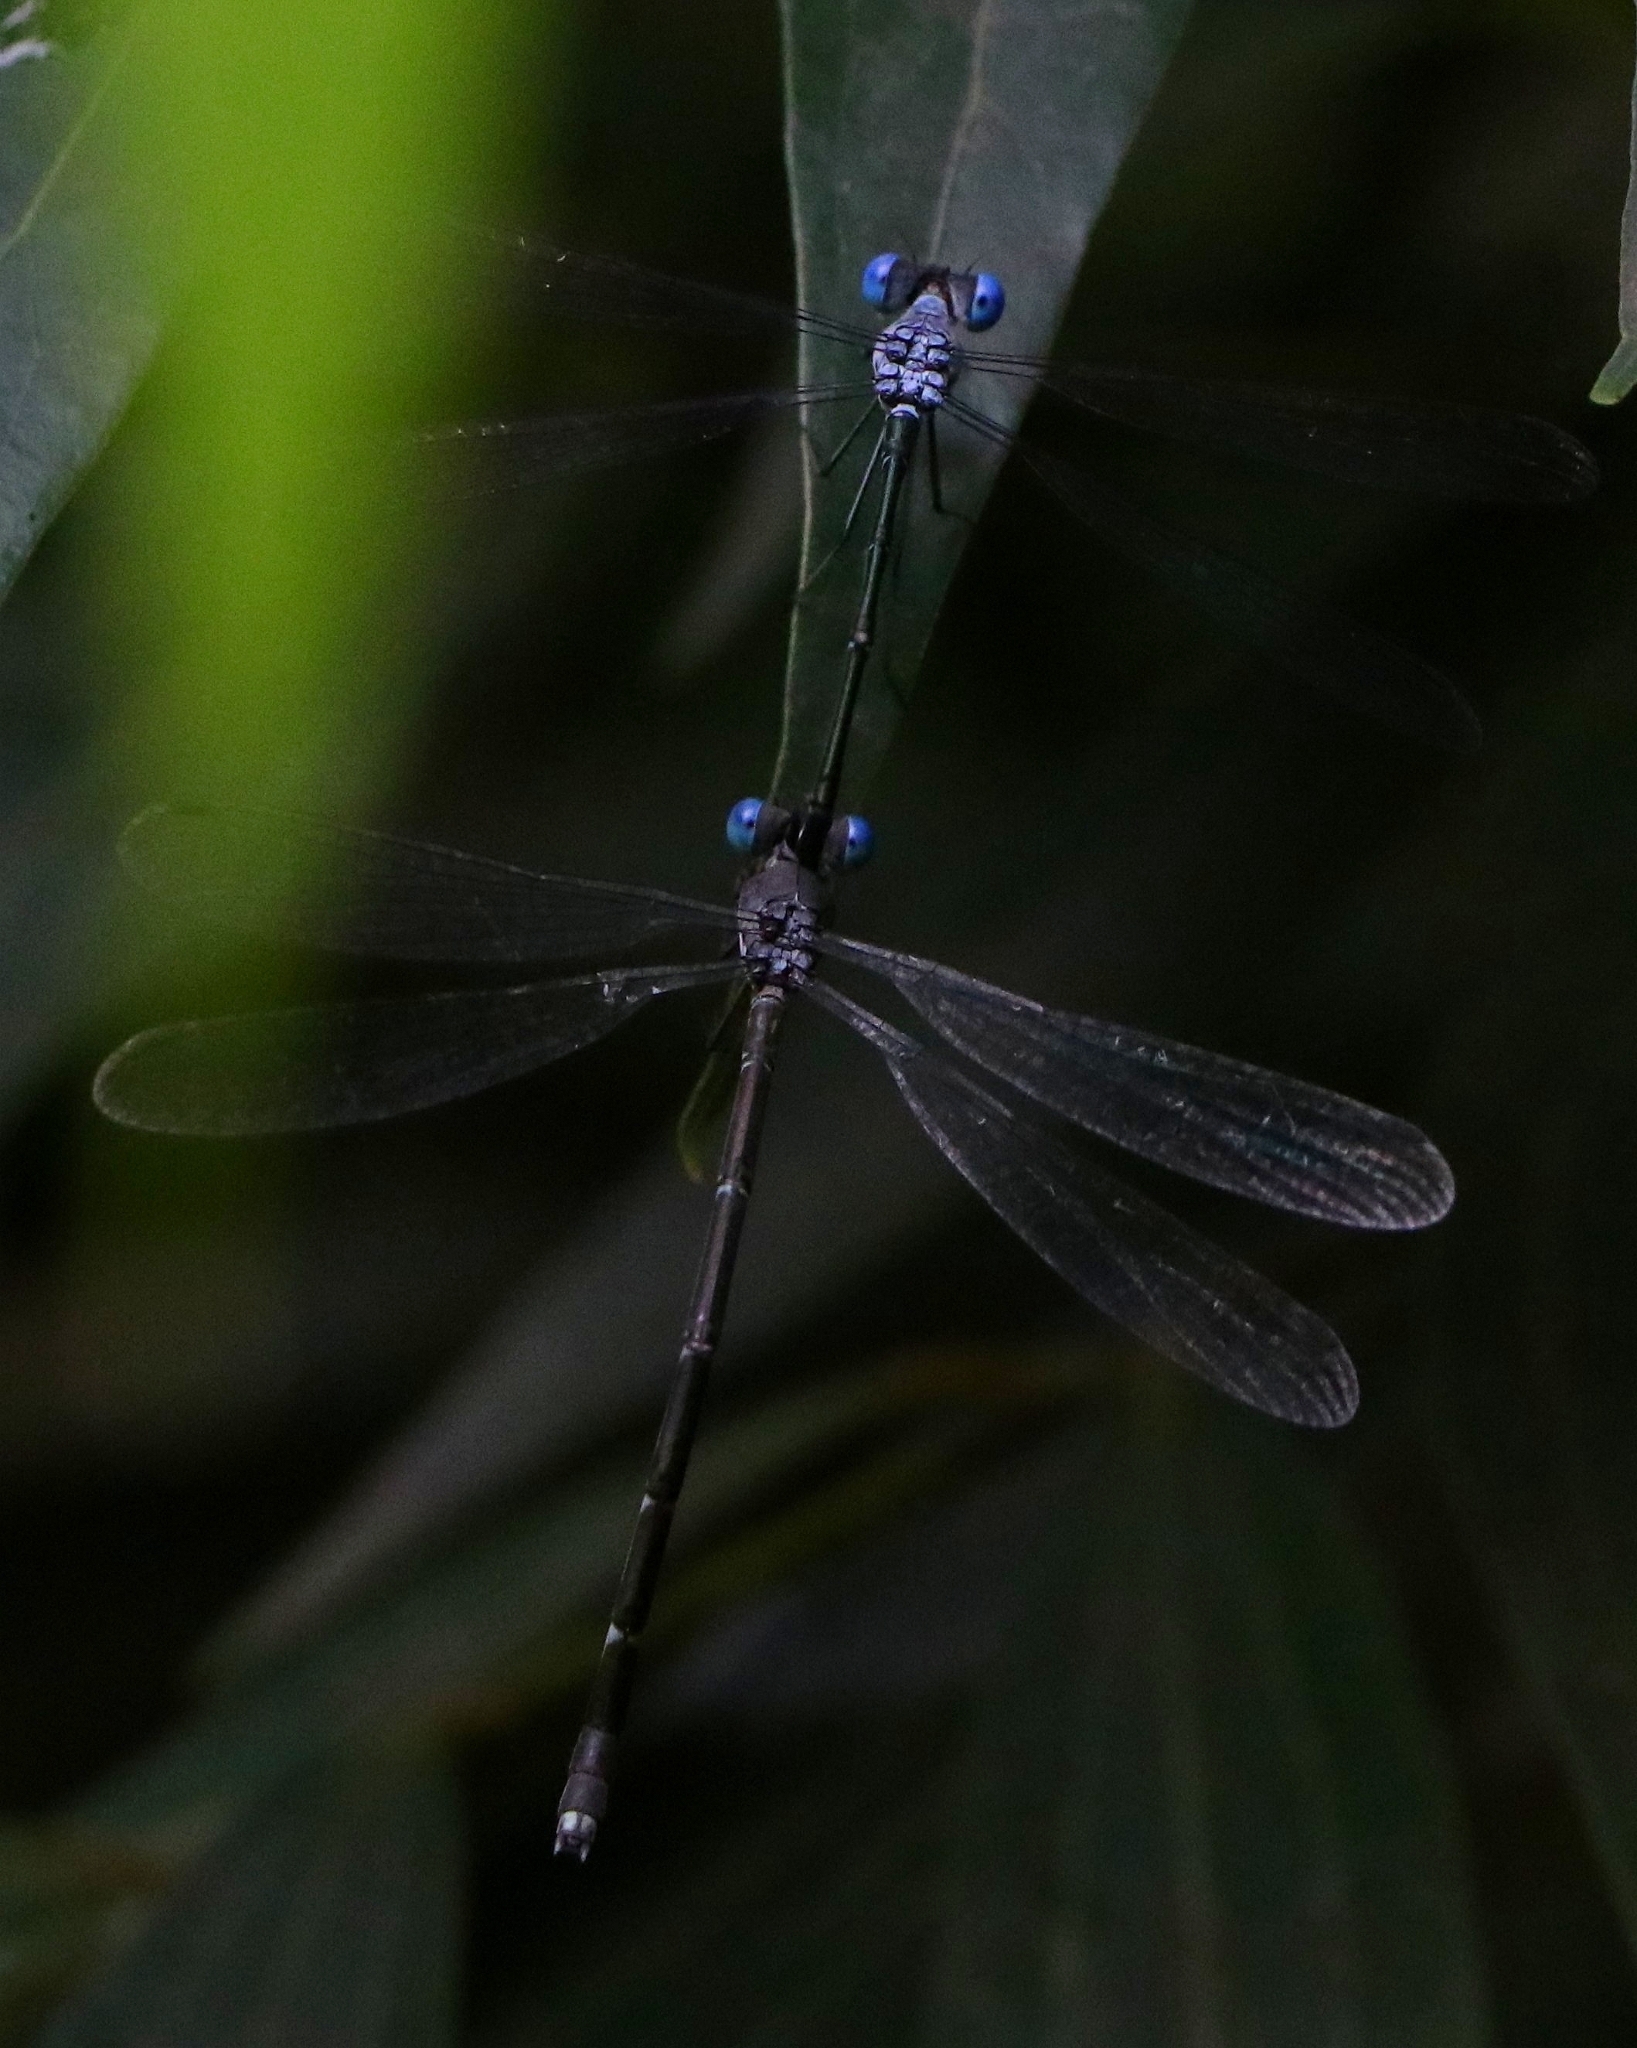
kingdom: Animalia
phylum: Arthropoda
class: Insecta
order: Odonata
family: Lestidae
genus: Lestes
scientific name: Lestes dorothea
